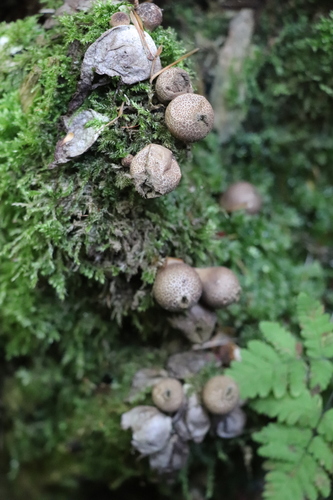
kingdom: Fungi
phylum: Basidiomycota
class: Agaricomycetes
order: Agaricales
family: Lycoperdaceae
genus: Apioperdon
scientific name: Apioperdon pyriforme
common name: Pear-shaped puffball
